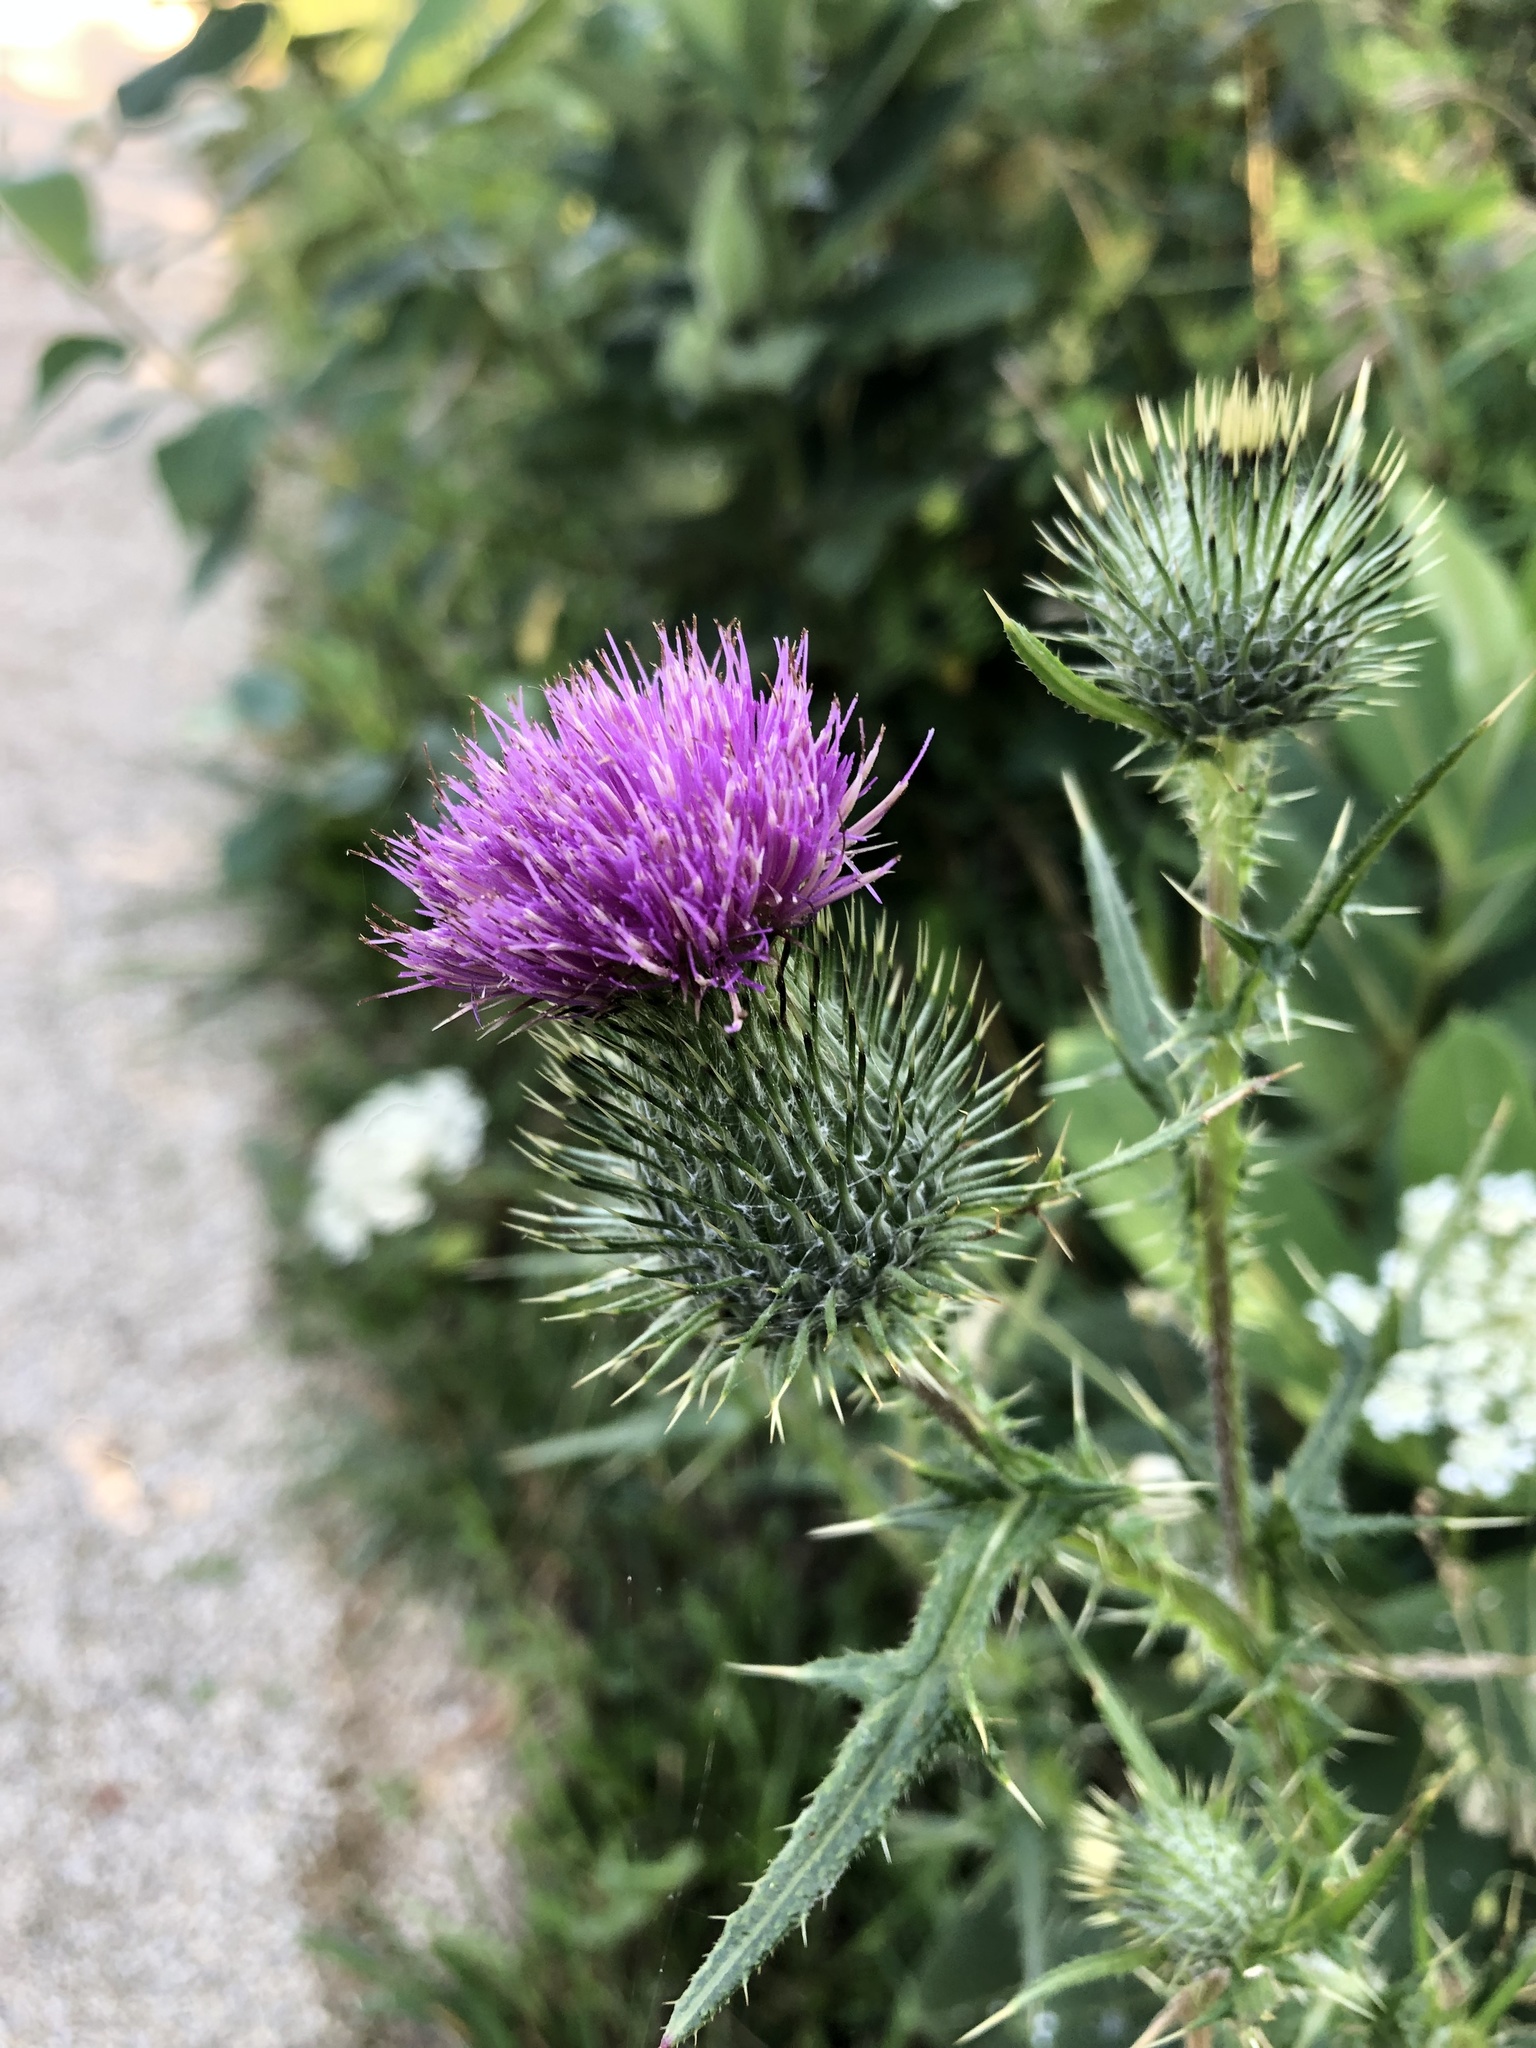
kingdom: Plantae
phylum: Tracheophyta
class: Magnoliopsida
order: Asterales
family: Asteraceae
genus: Cirsium
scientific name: Cirsium vulgare
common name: Bull thistle
